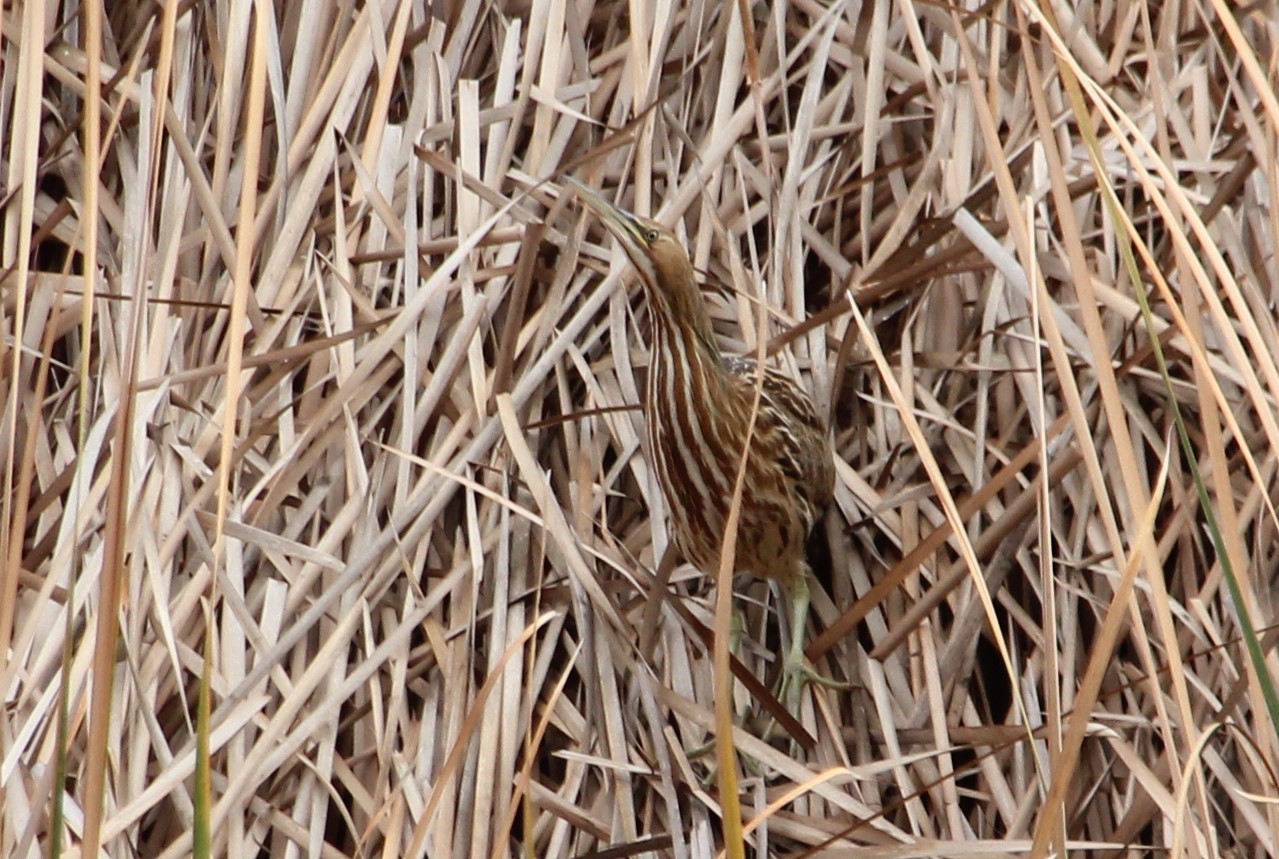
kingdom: Animalia
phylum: Chordata
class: Aves
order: Pelecaniformes
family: Ardeidae
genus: Botaurus
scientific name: Botaurus lentiginosus
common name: American bittern
